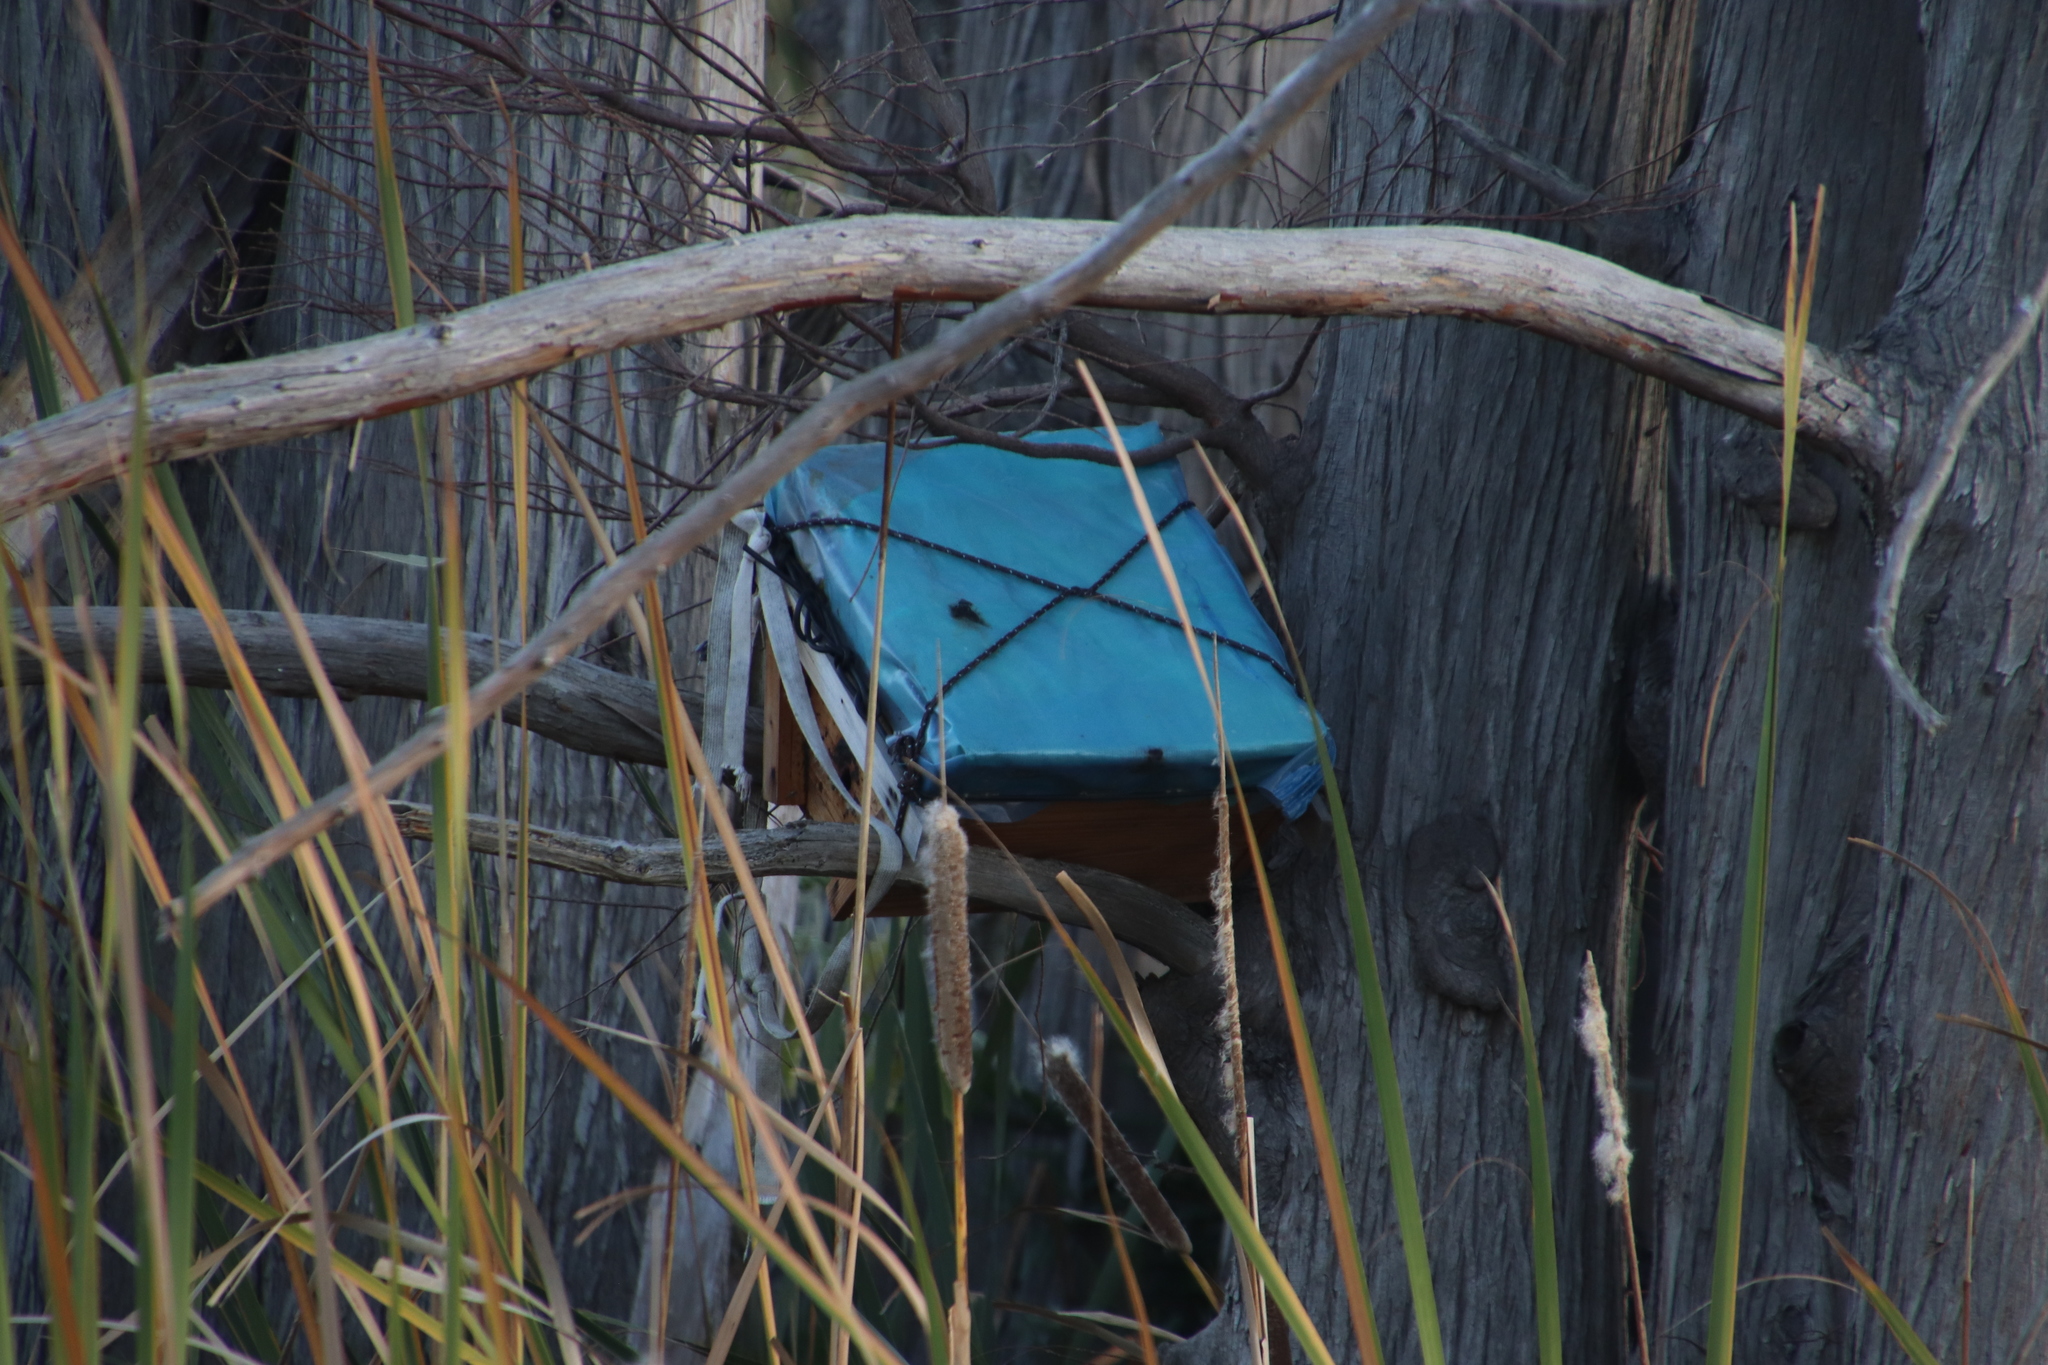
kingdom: Animalia
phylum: Arthropoda
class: Insecta
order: Hymenoptera
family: Apidae
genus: Apis
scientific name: Apis mellifera
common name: Honey bee
